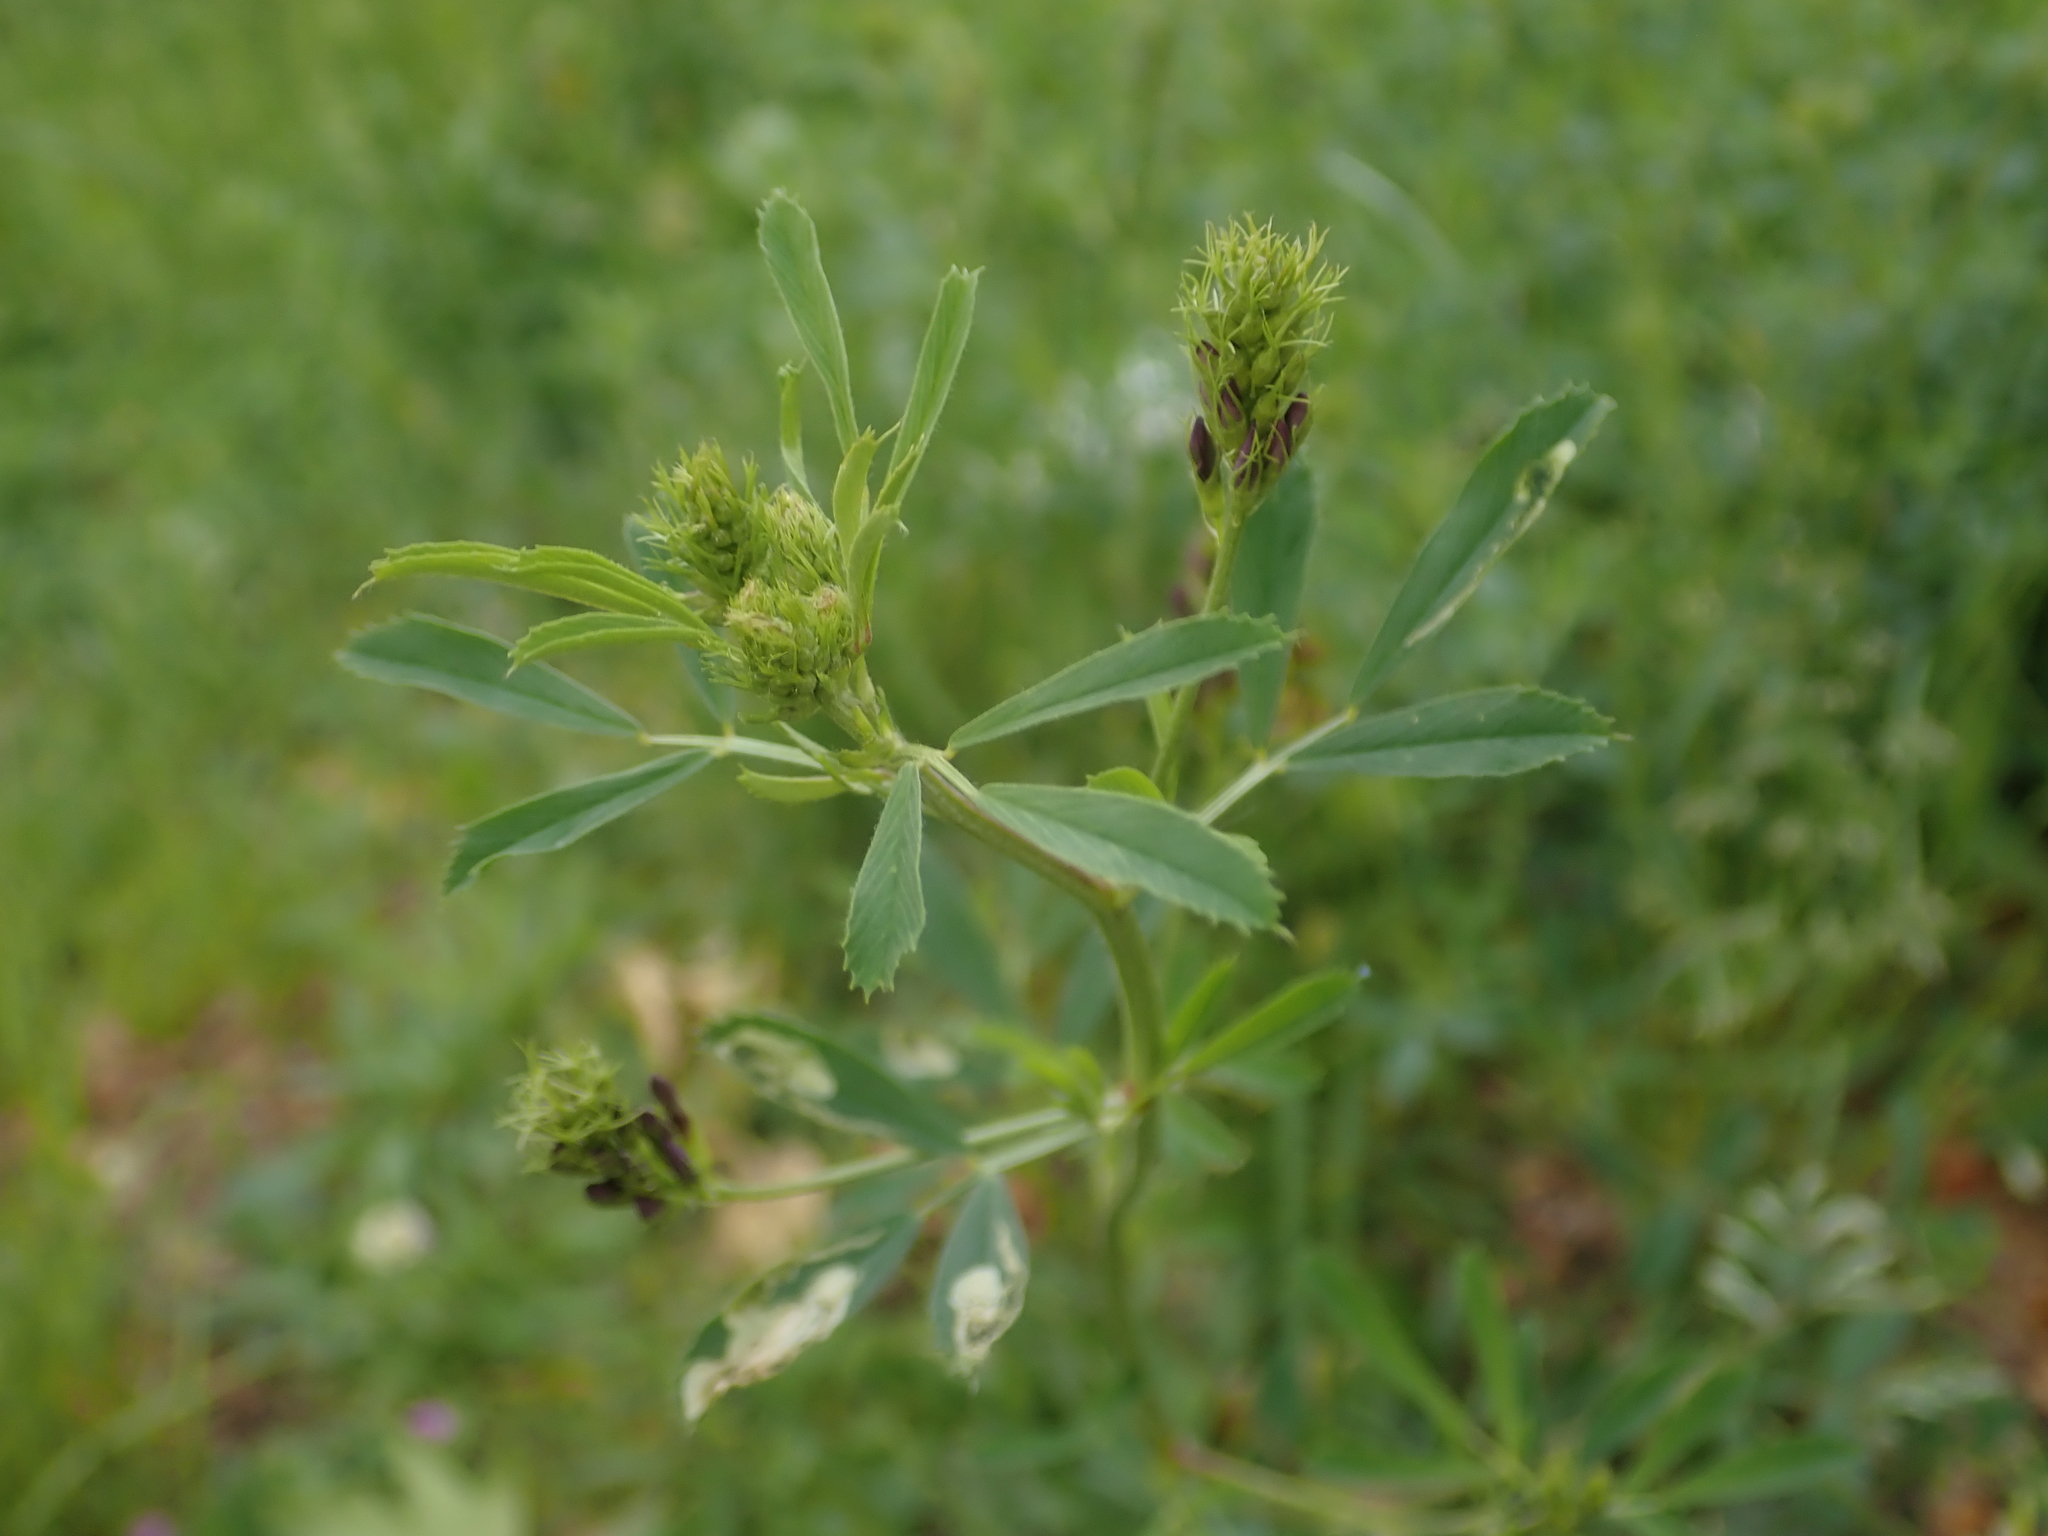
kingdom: Plantae
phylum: Tracheophyta
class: Magnoliopsida
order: Fabales
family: Fabaceae
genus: Medicago
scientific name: Medicago varia
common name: Sand lucerne
